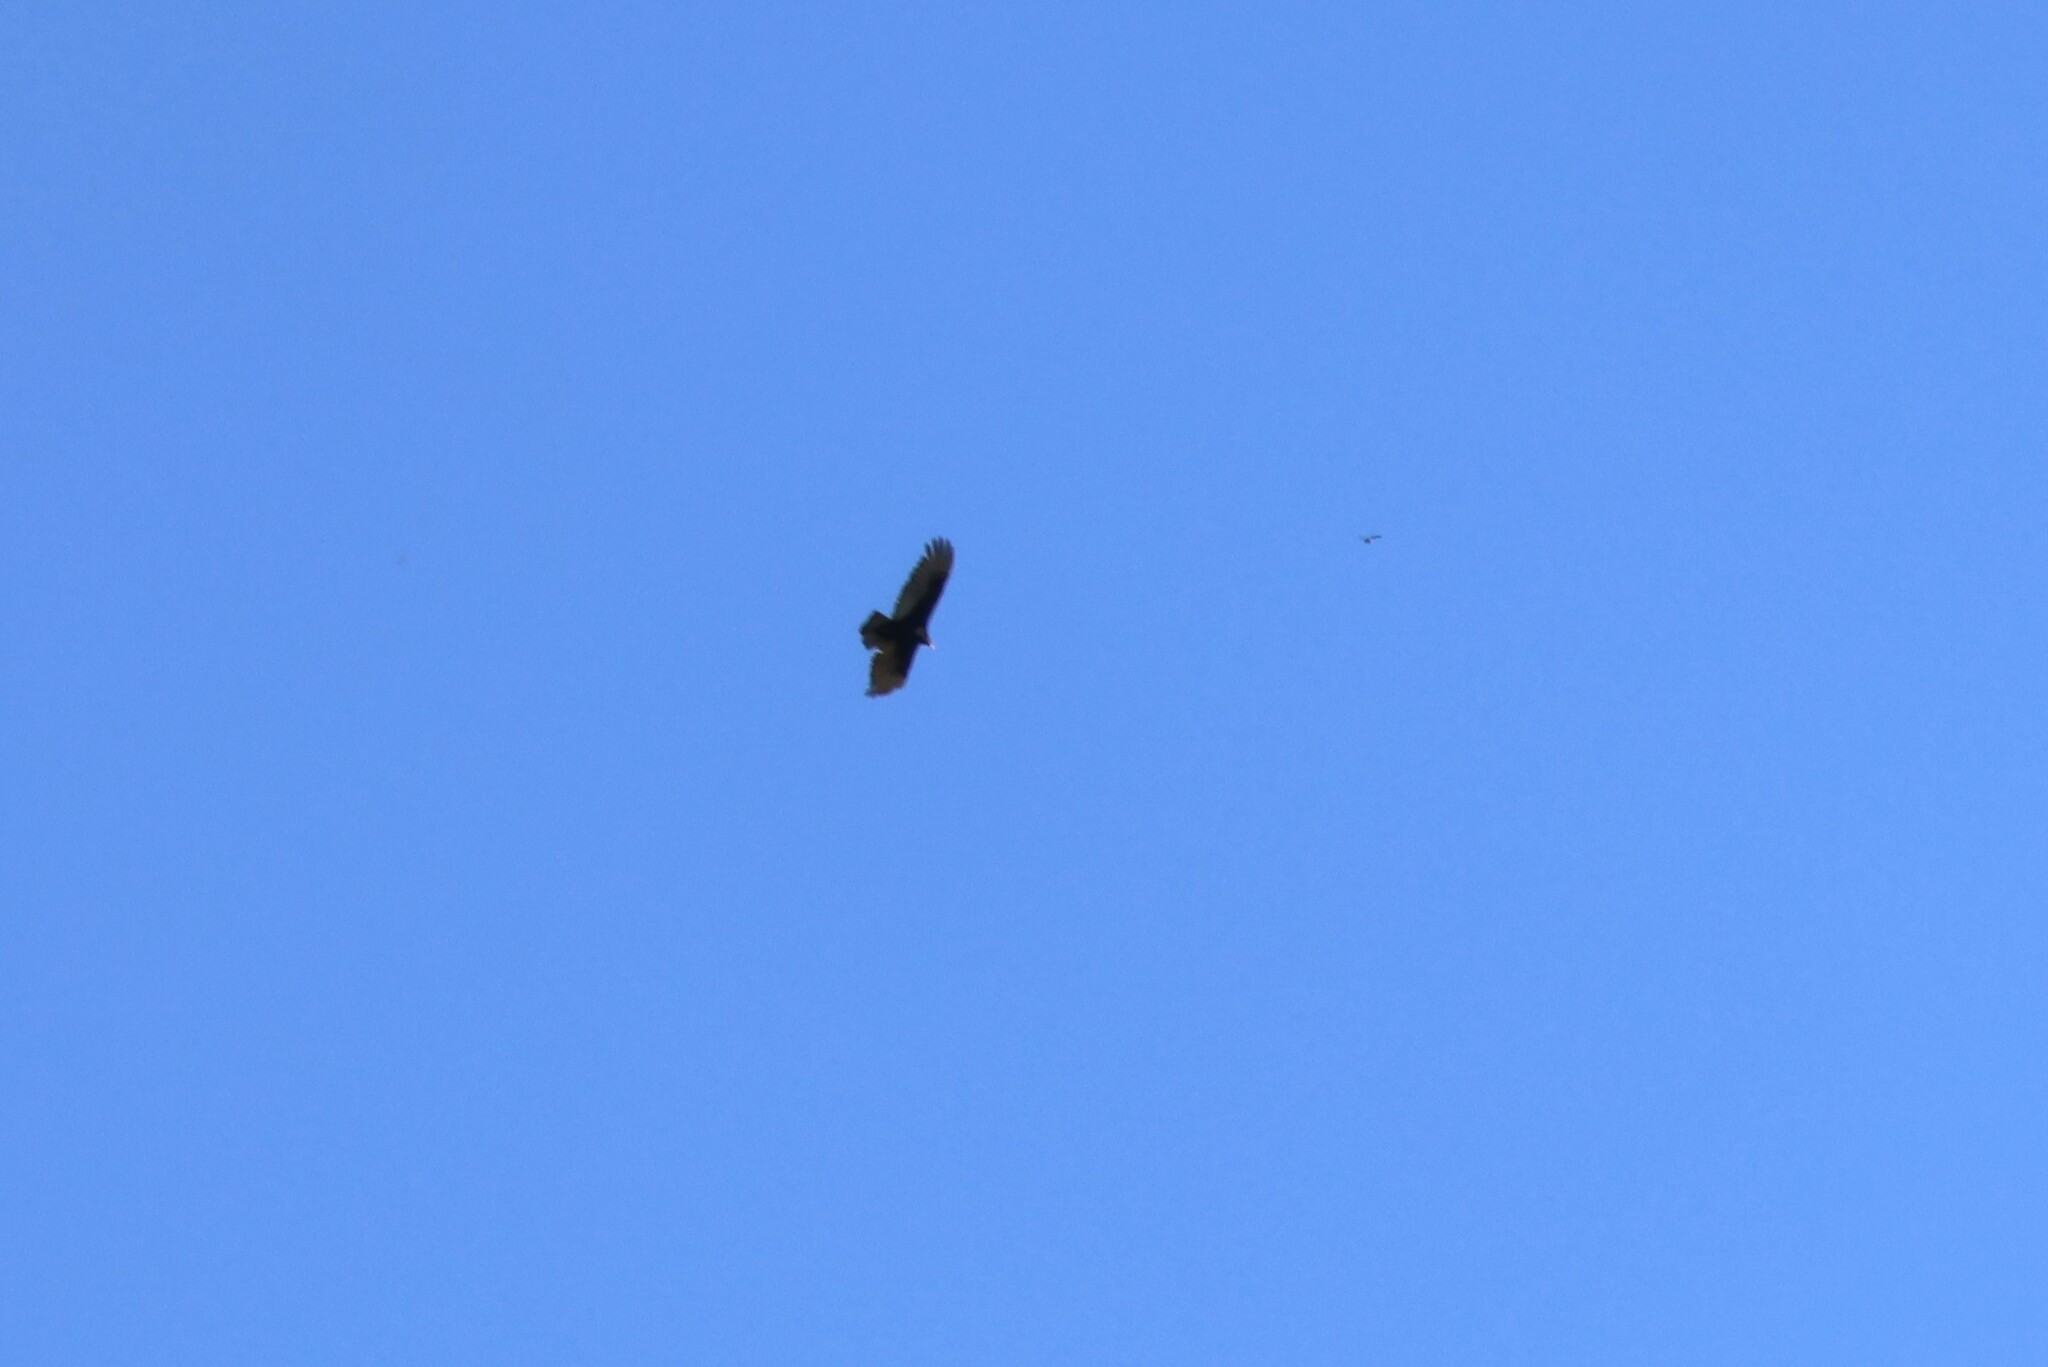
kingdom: Animalia
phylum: Chordata
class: Aves
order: Accipitriformes
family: Cathartidae
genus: Cathartes
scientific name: Cathartes aura
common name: Turkey vulture
